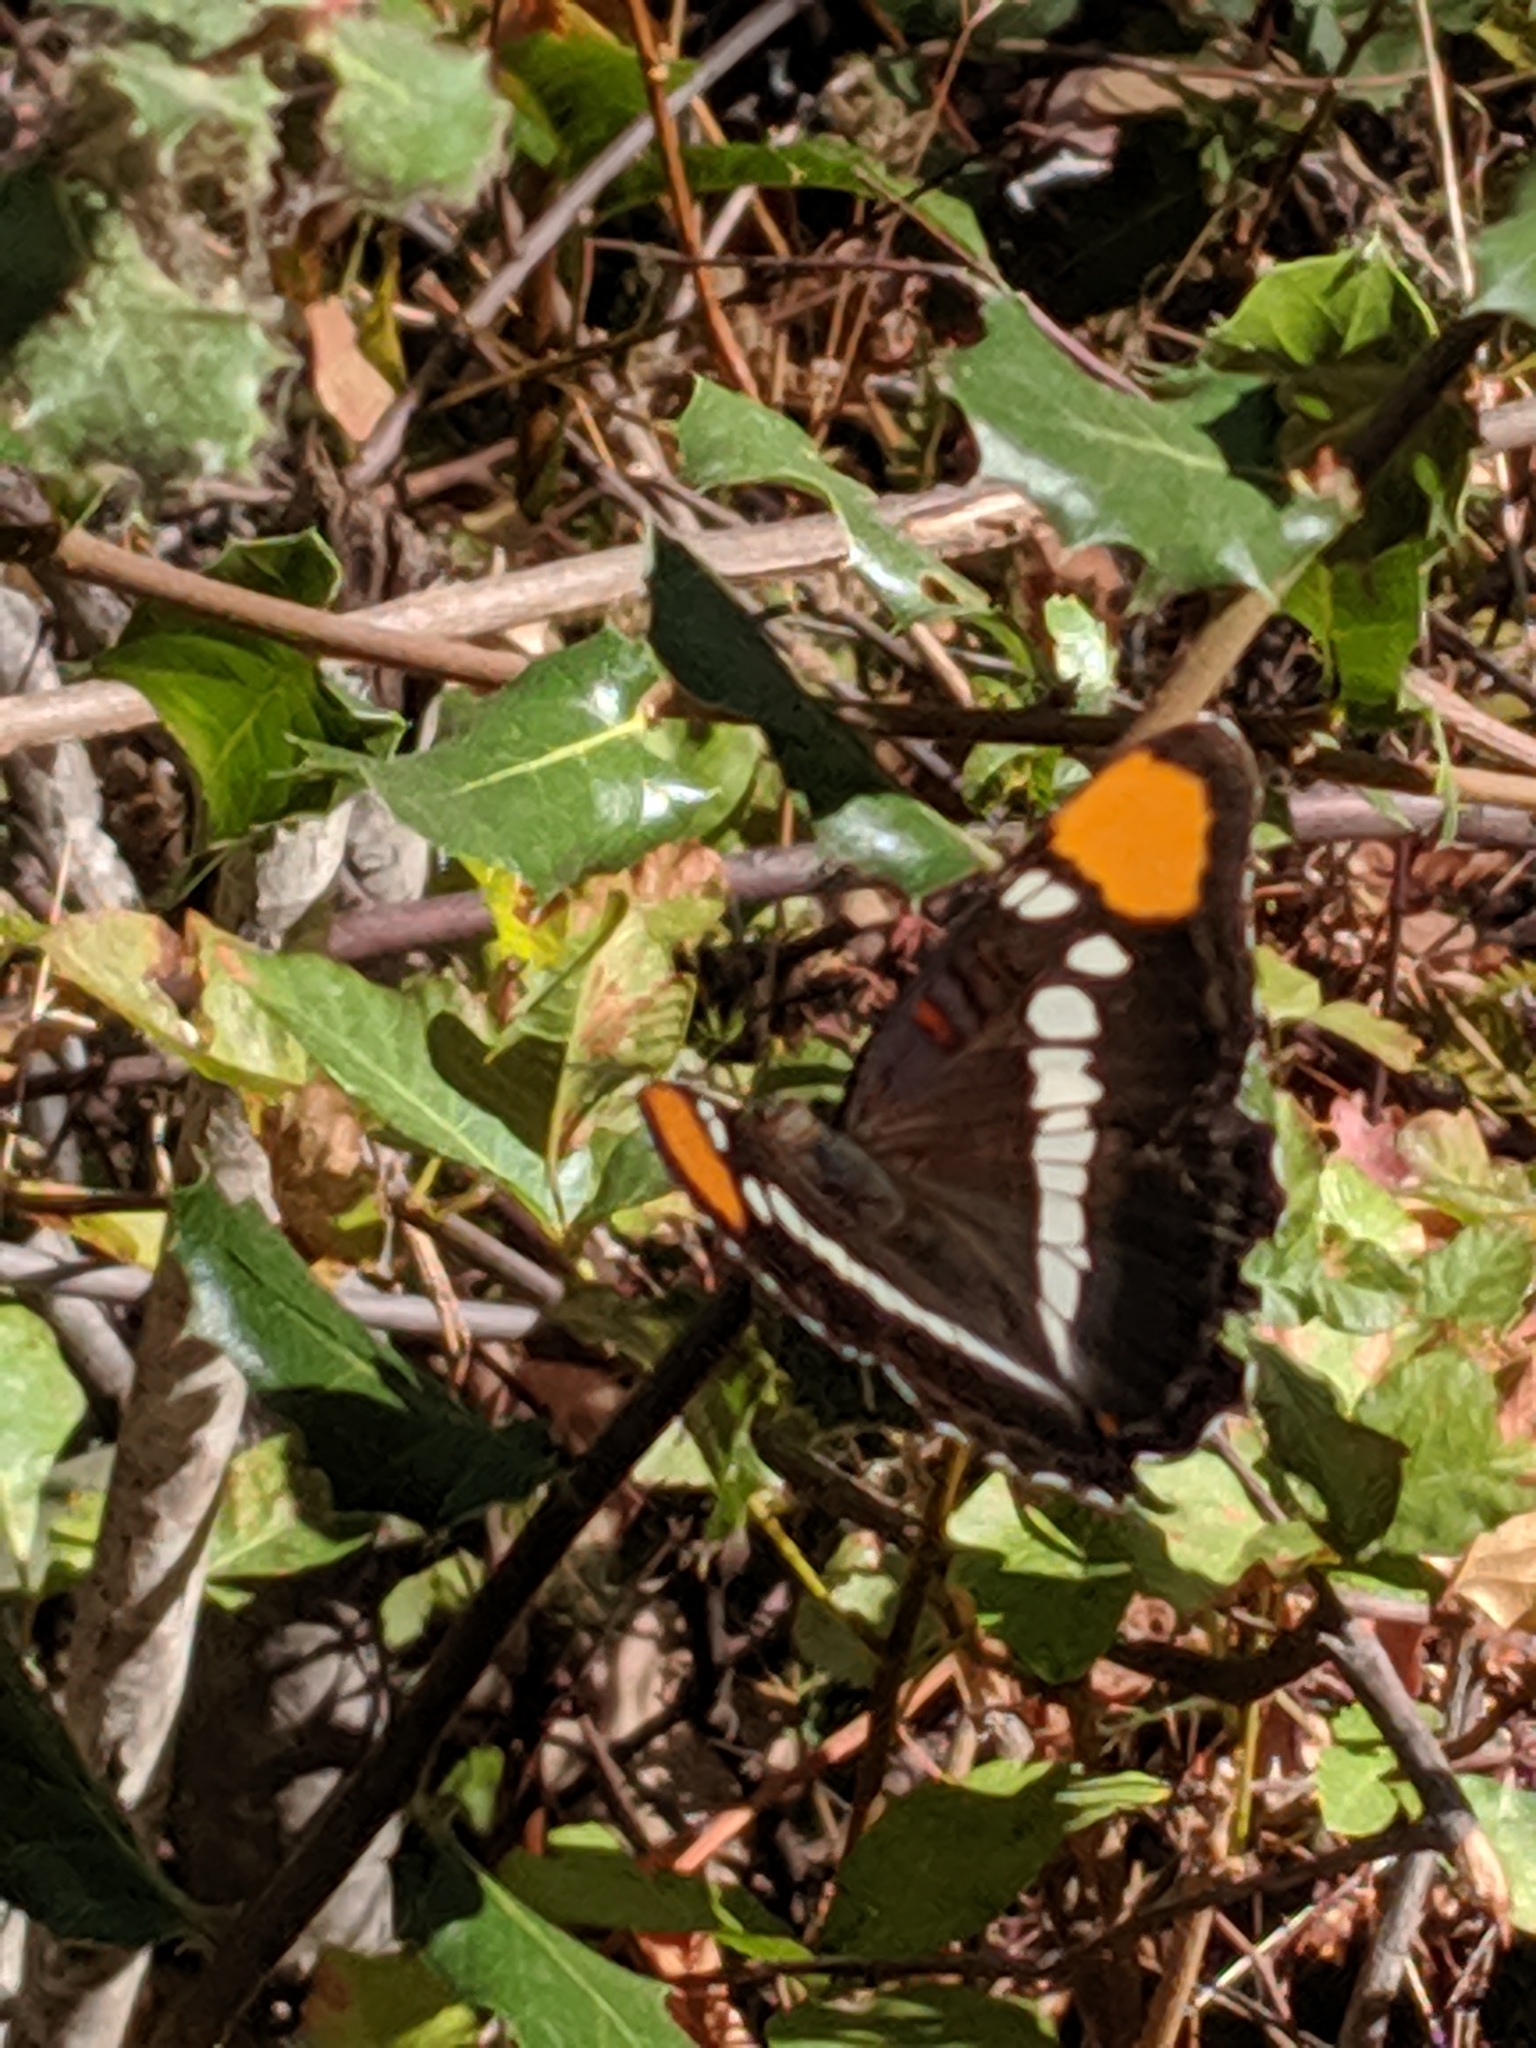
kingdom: Animalia
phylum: Arthropoda
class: Insecta
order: Lepidoptera
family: Nymphalidae
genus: Limenitis
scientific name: Limenitis bredowii
